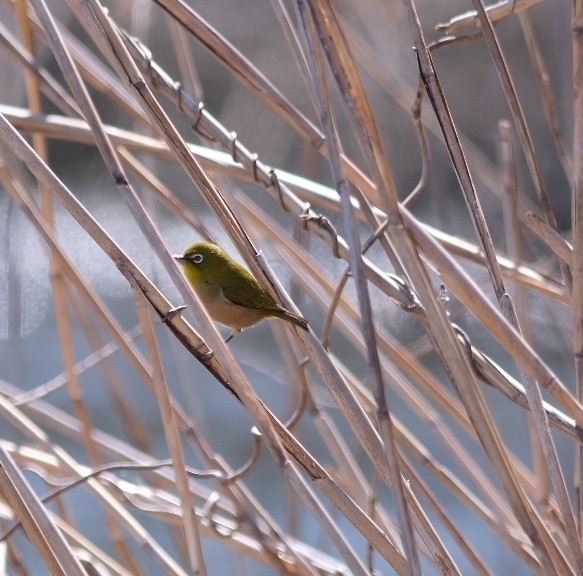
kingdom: Animalia
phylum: Chordata
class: Aves
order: Passeriformes
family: Zosteropidae
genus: Zosterops
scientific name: Zosterops japonicus
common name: Japanese white-eye
